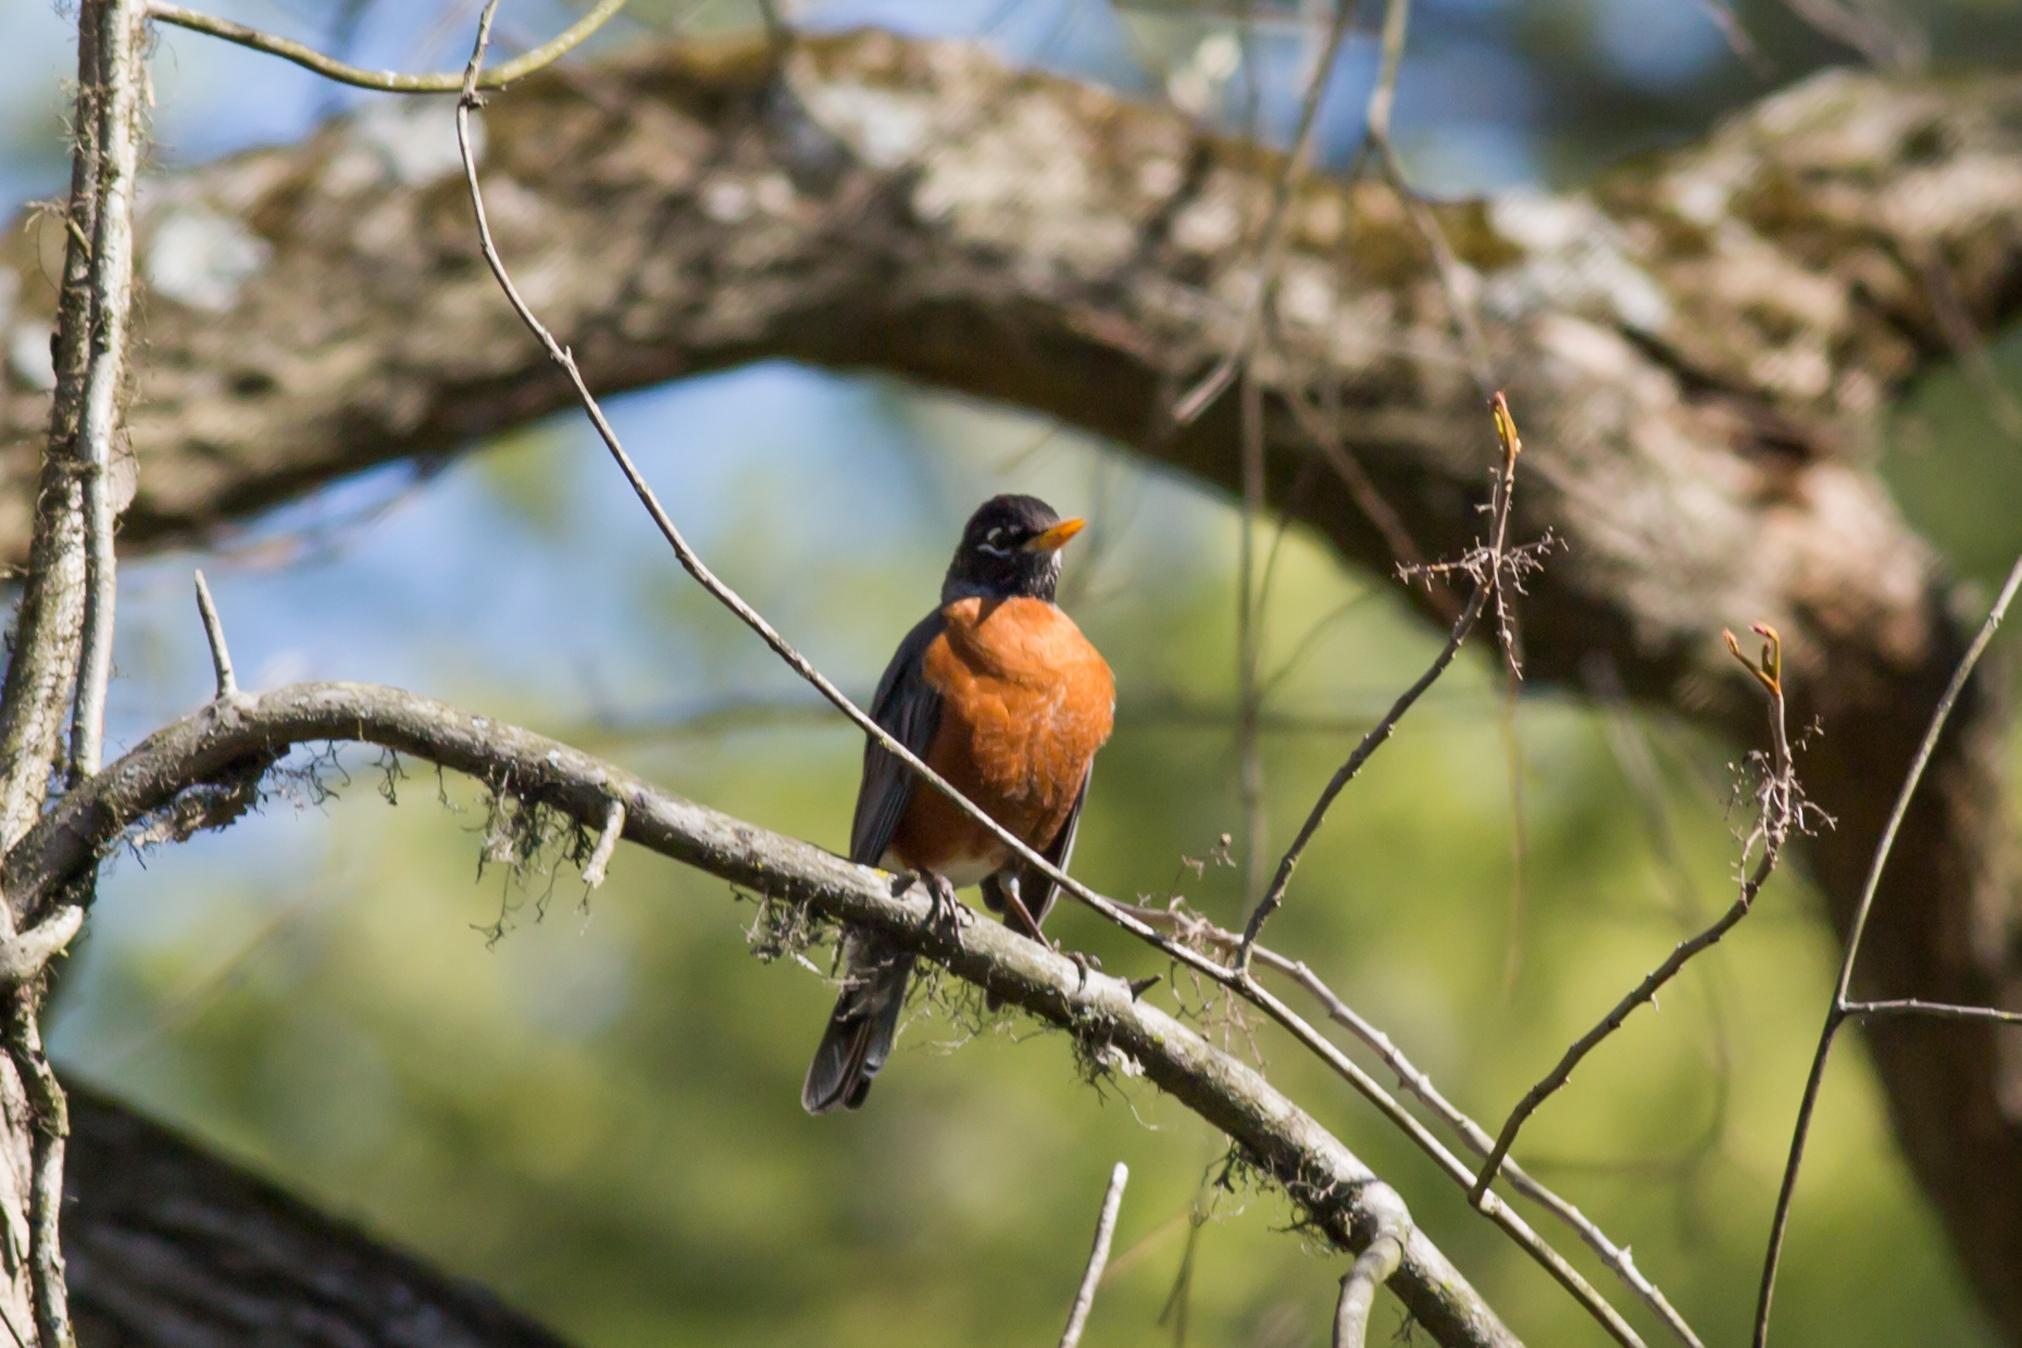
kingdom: Animalia
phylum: Chordata
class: Aves
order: Passeriformes
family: Turdidae
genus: Turdus
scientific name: Turdus migratorius
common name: American robin
